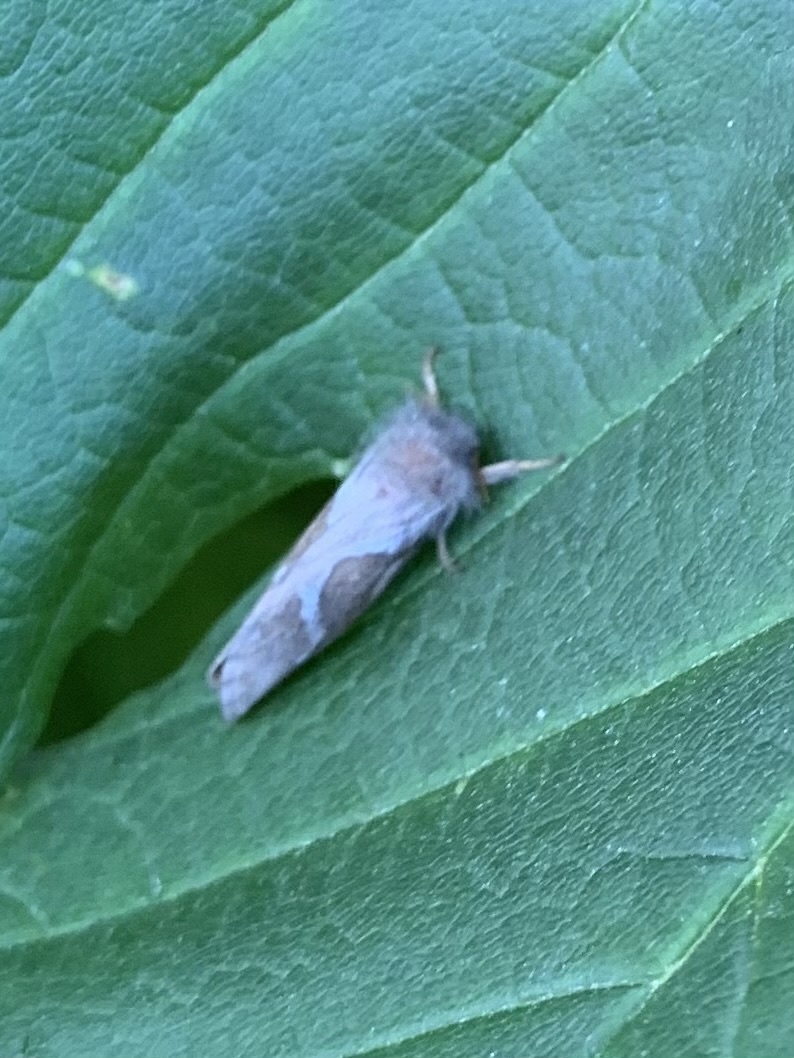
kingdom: Animalia
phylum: Arthropoda
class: Insecta
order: Lepidoptera
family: Hepialidae
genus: Korscheltellus
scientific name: Korscheltellus lupulina
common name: Common swift
